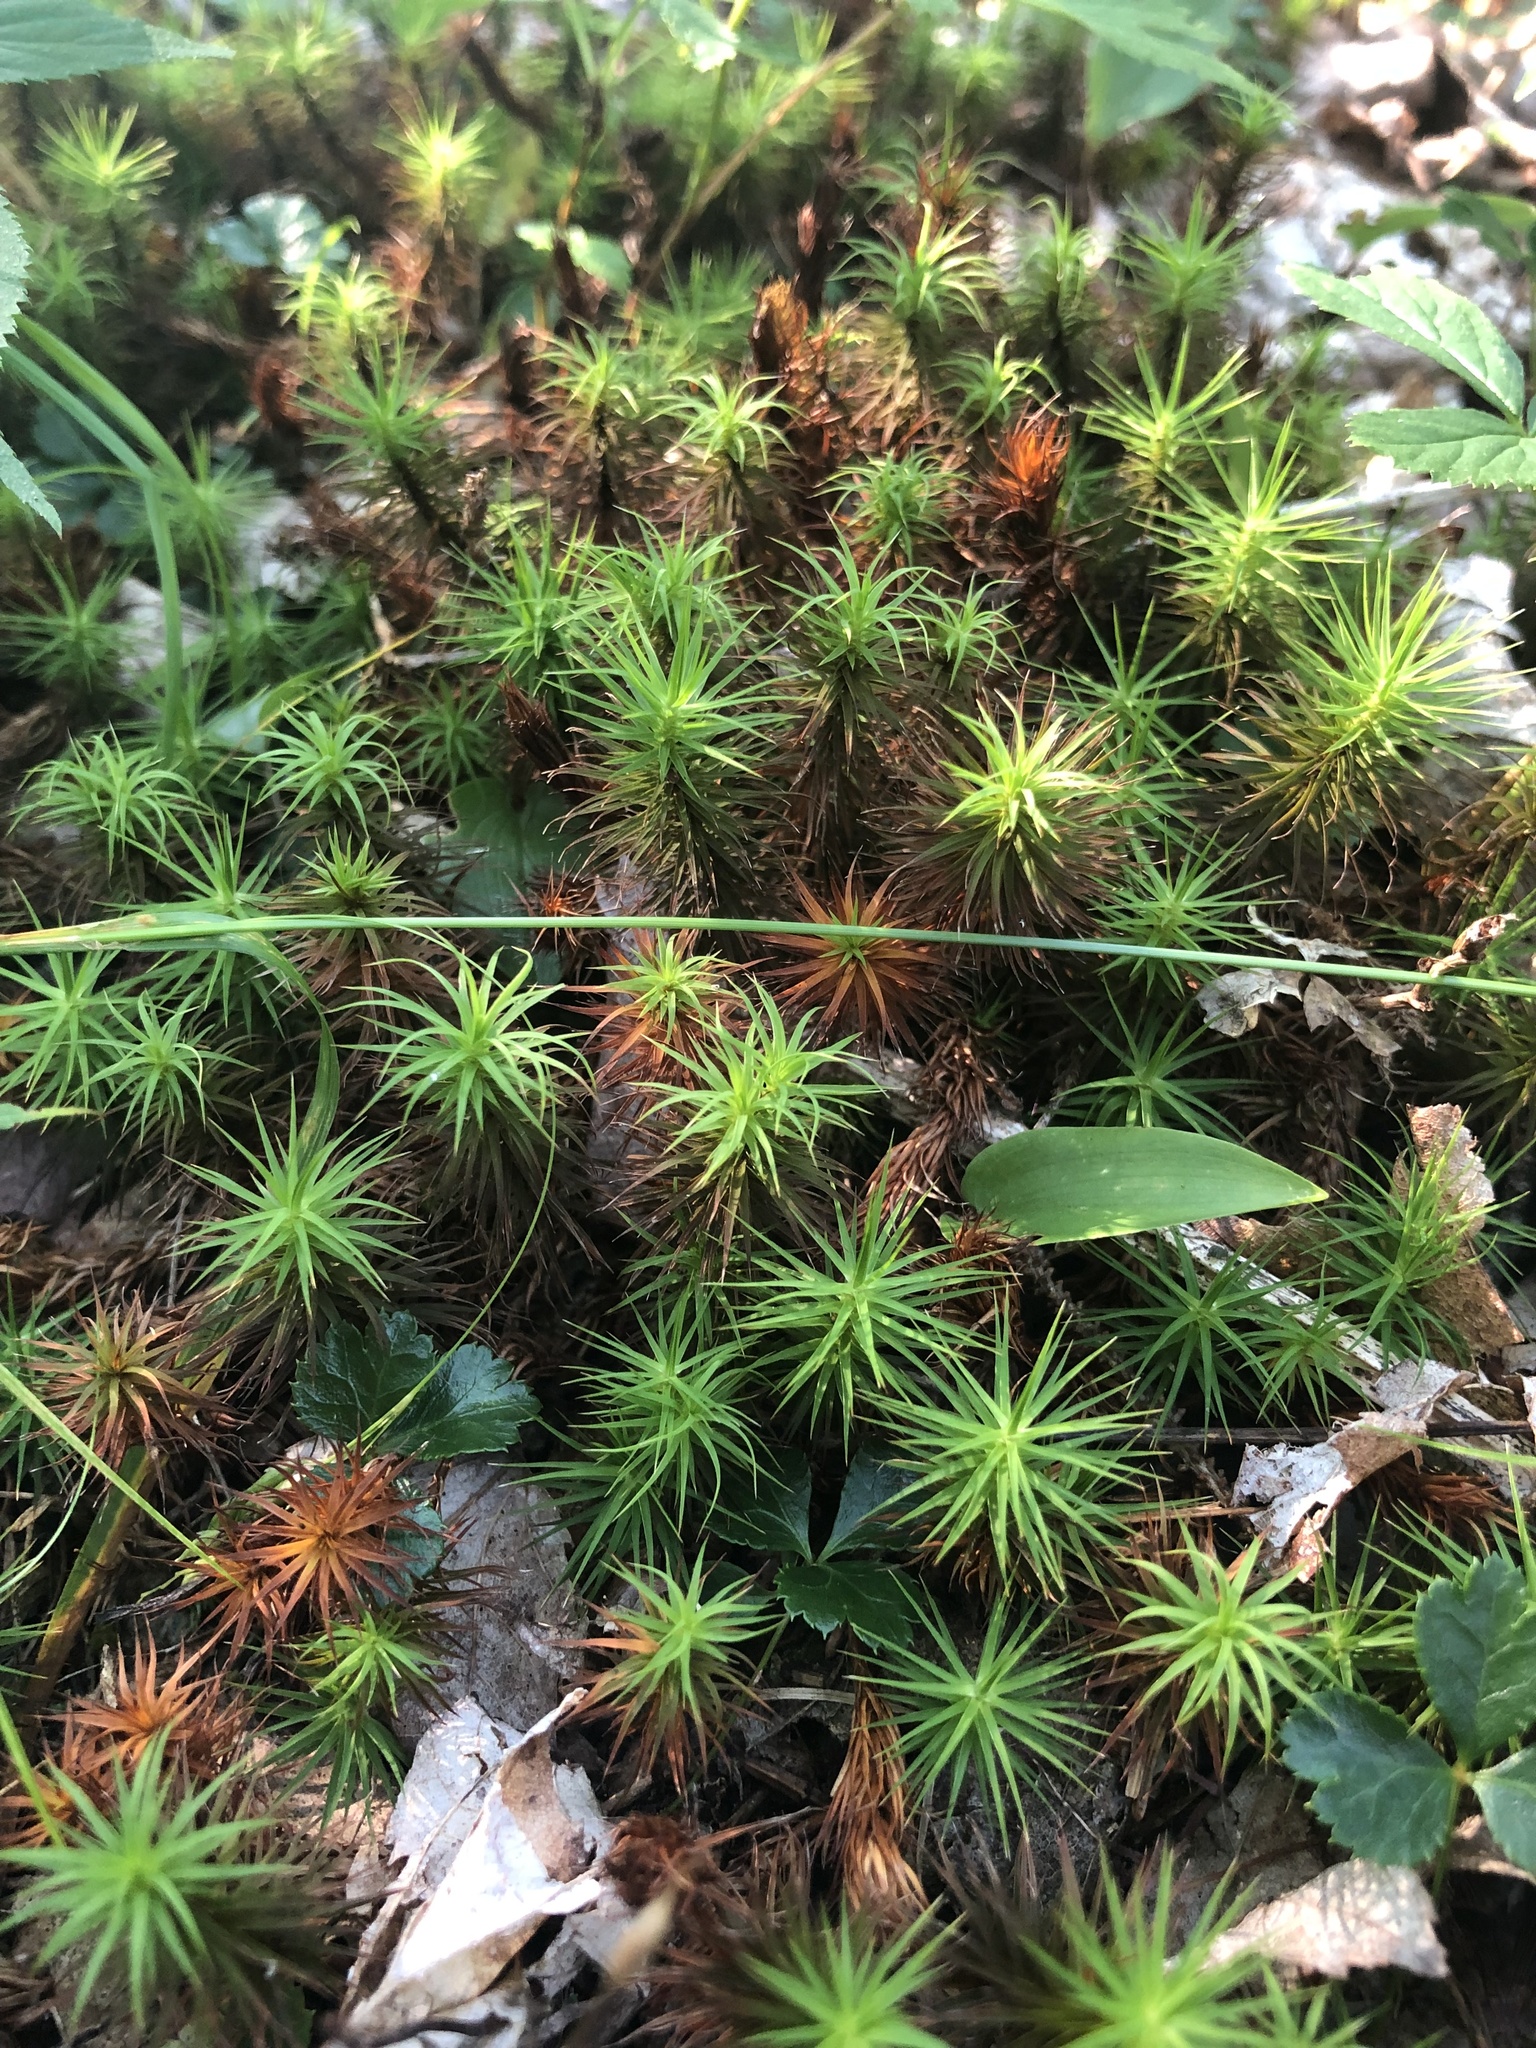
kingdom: Plantae
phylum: Bryophyta
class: Polytrichopsida
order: Polytrichales
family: Polytrichaceae
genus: Polytrichum
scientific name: Polytrichum commune
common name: Common haircap
